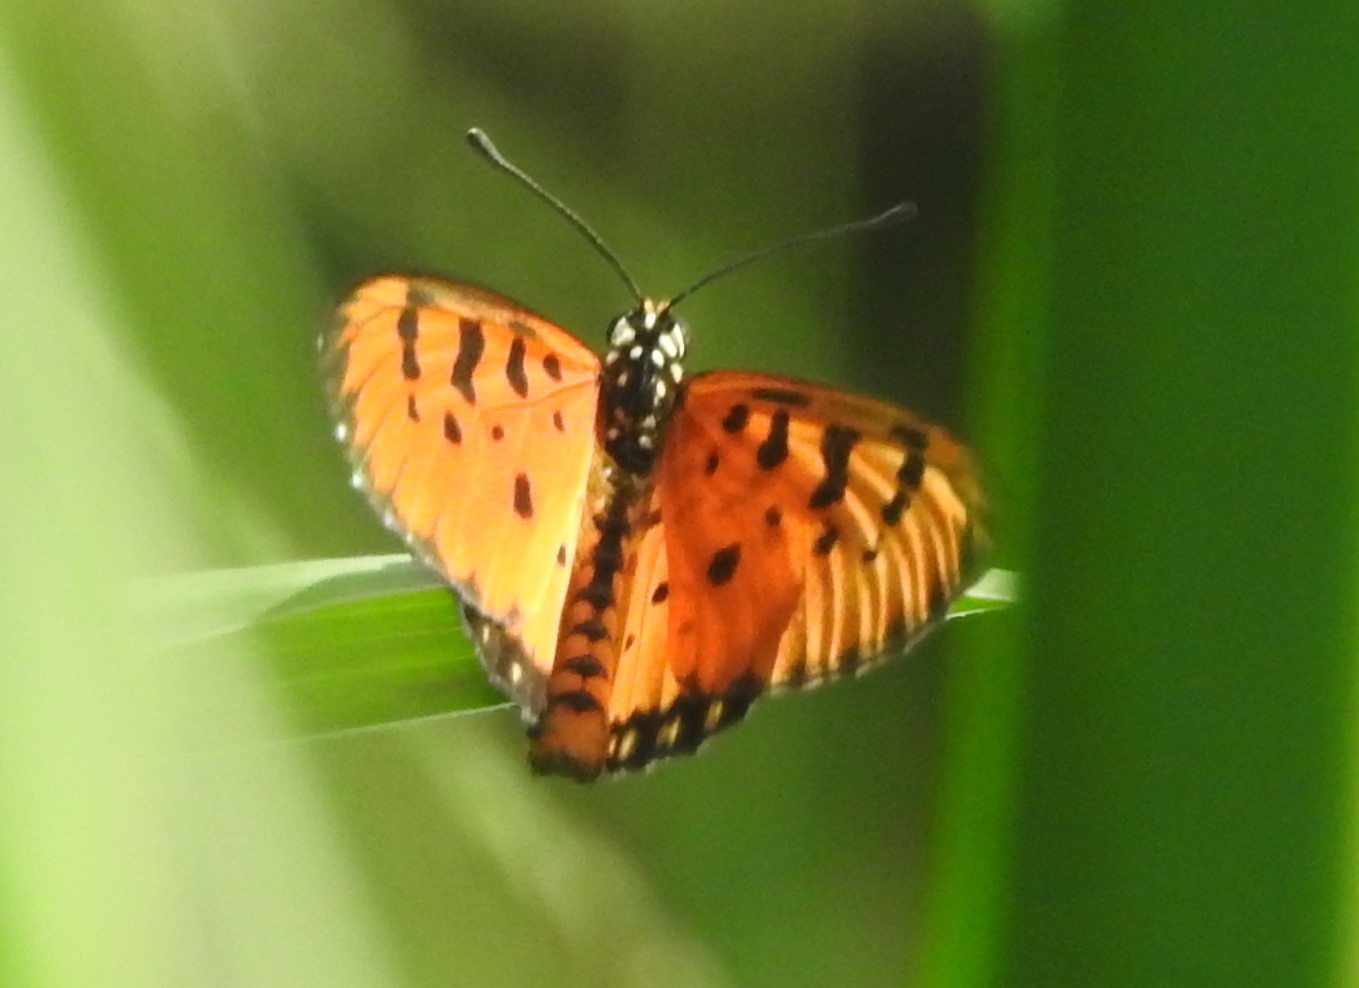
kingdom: Animalia
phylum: Arthropoda
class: Insecta
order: Lepidoptera
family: Nymphalidae
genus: Acraea
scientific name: Acraea terpsicore
